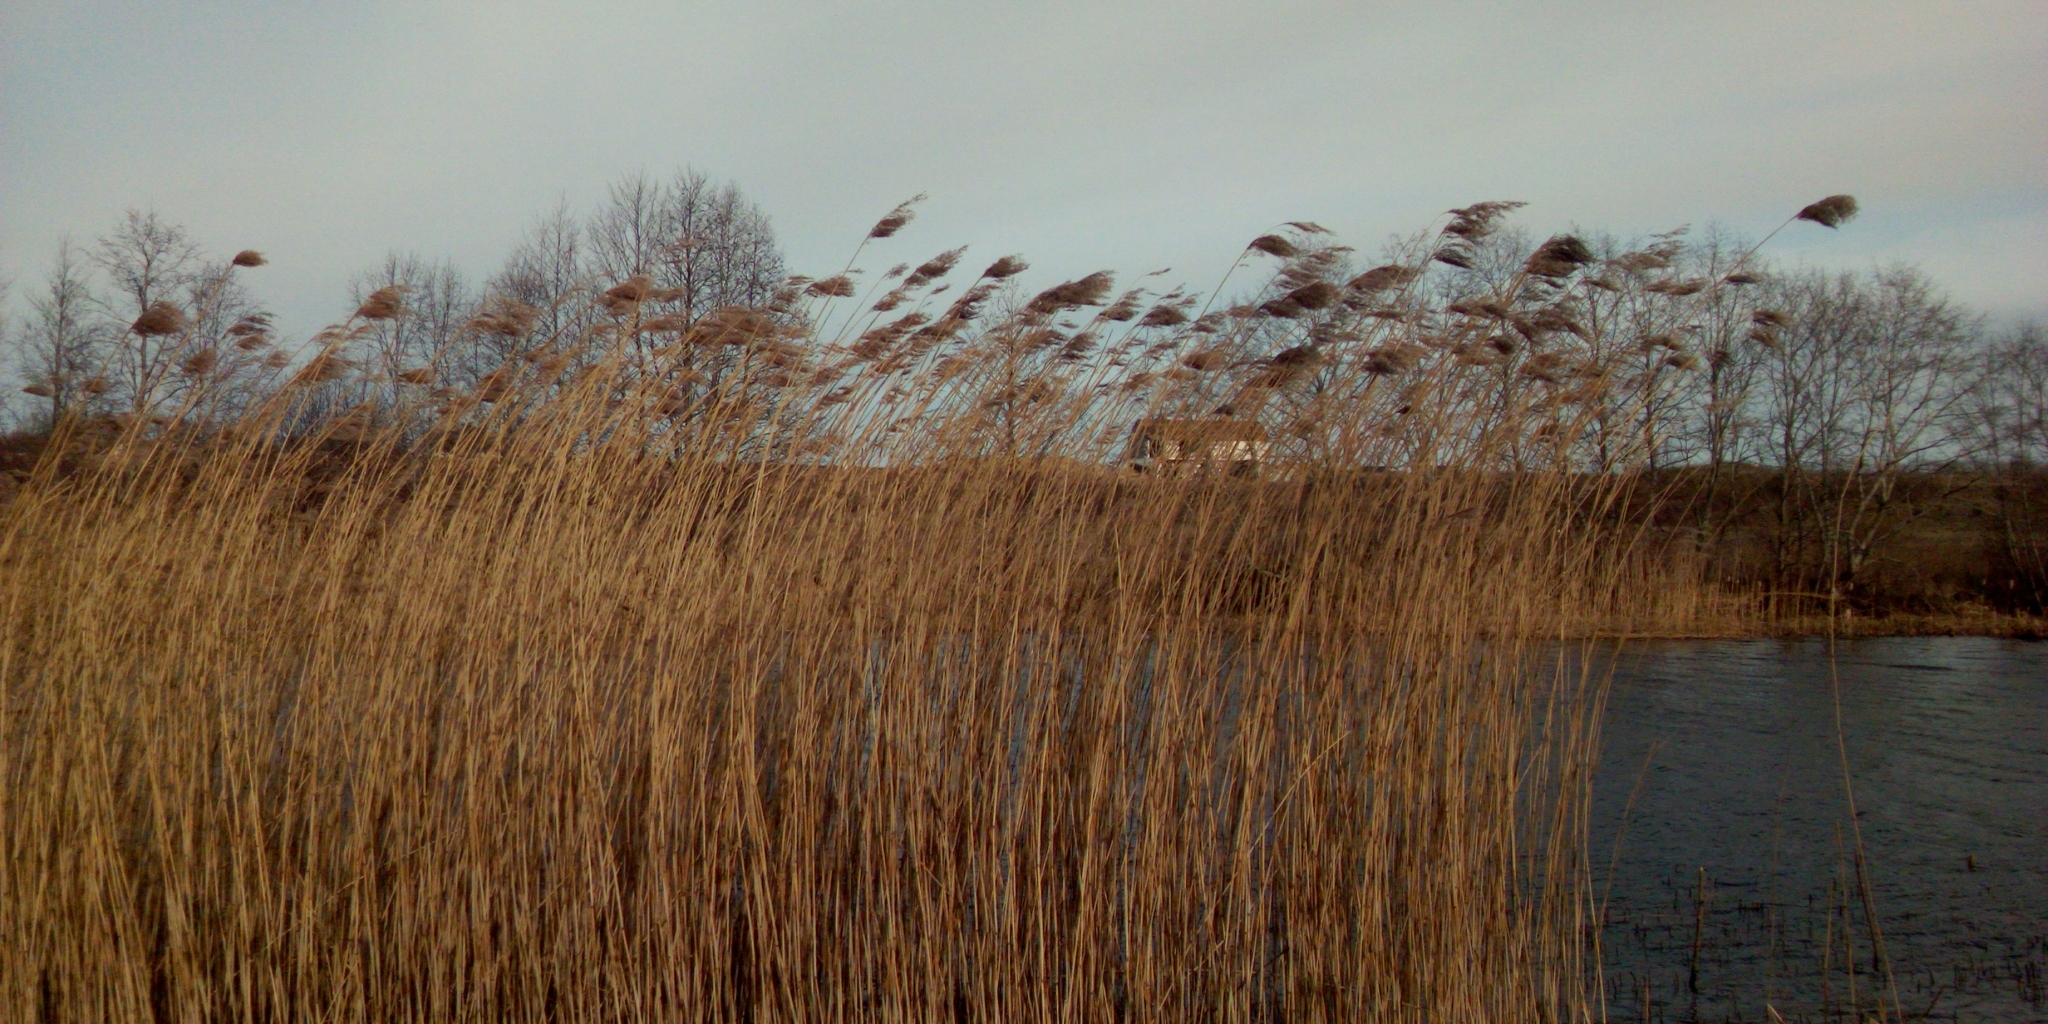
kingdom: Plantae
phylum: Tracheophyta
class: Liliopsida
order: Poales
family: Poaceae
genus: Phragmites
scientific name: Phragmites australis
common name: Common reed
